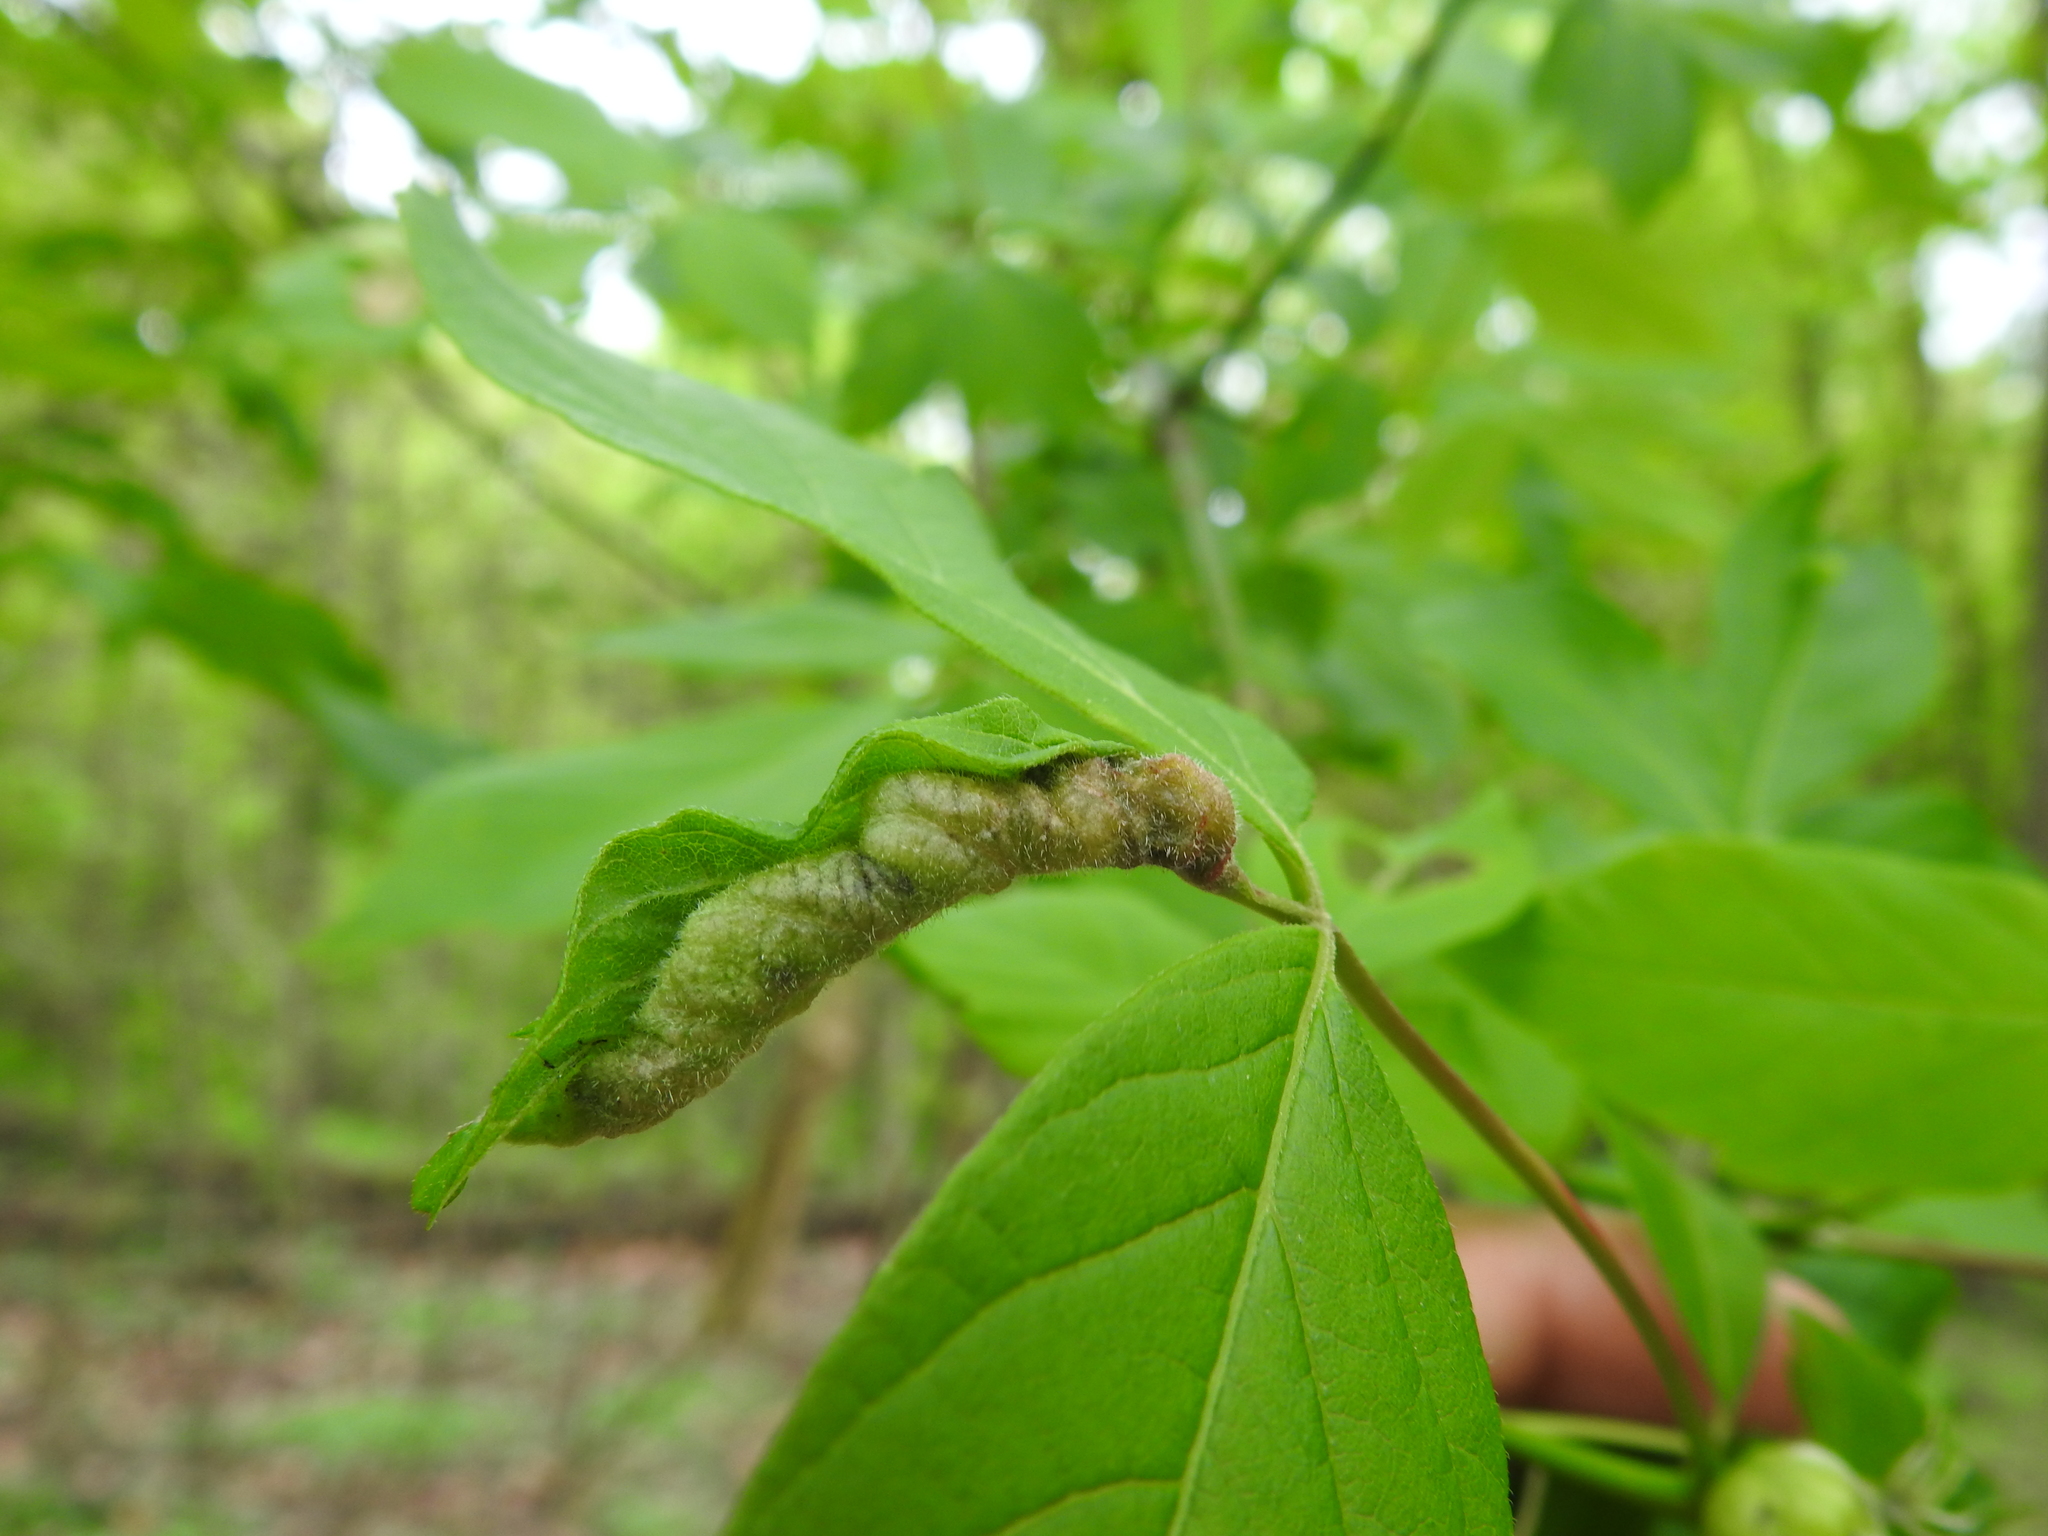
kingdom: Animalia
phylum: Arthropoda
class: Insecta
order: Diptera
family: Cecidomyiidae
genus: Contarinia
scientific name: Contarinia negundinis
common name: Boxelder budgall midge
